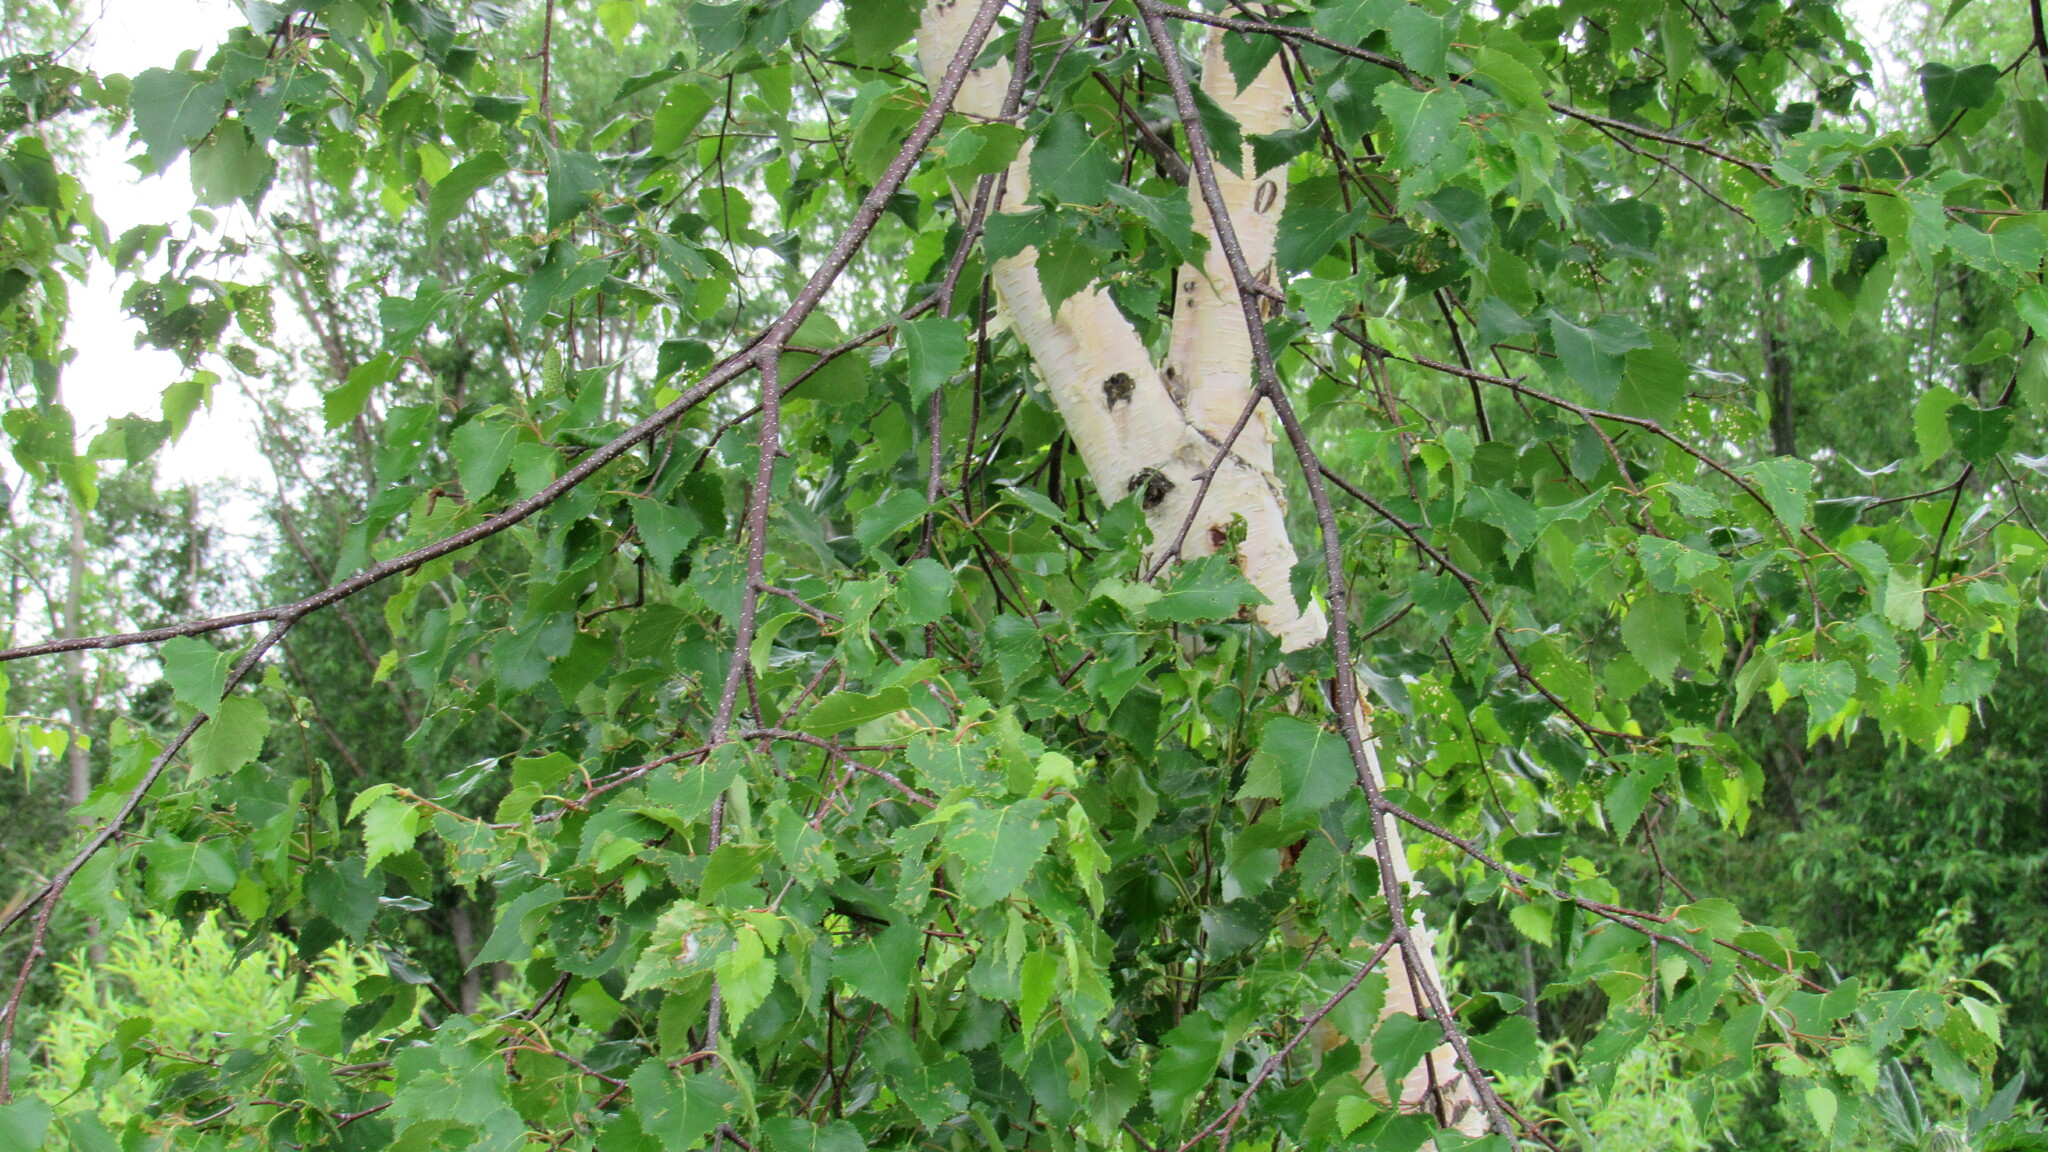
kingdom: Plantae
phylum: Tracheophyta
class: Magnoliopsida
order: Fagales
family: Betulaceae
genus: Betula
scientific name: Betula ermanii
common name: Erman's birch
